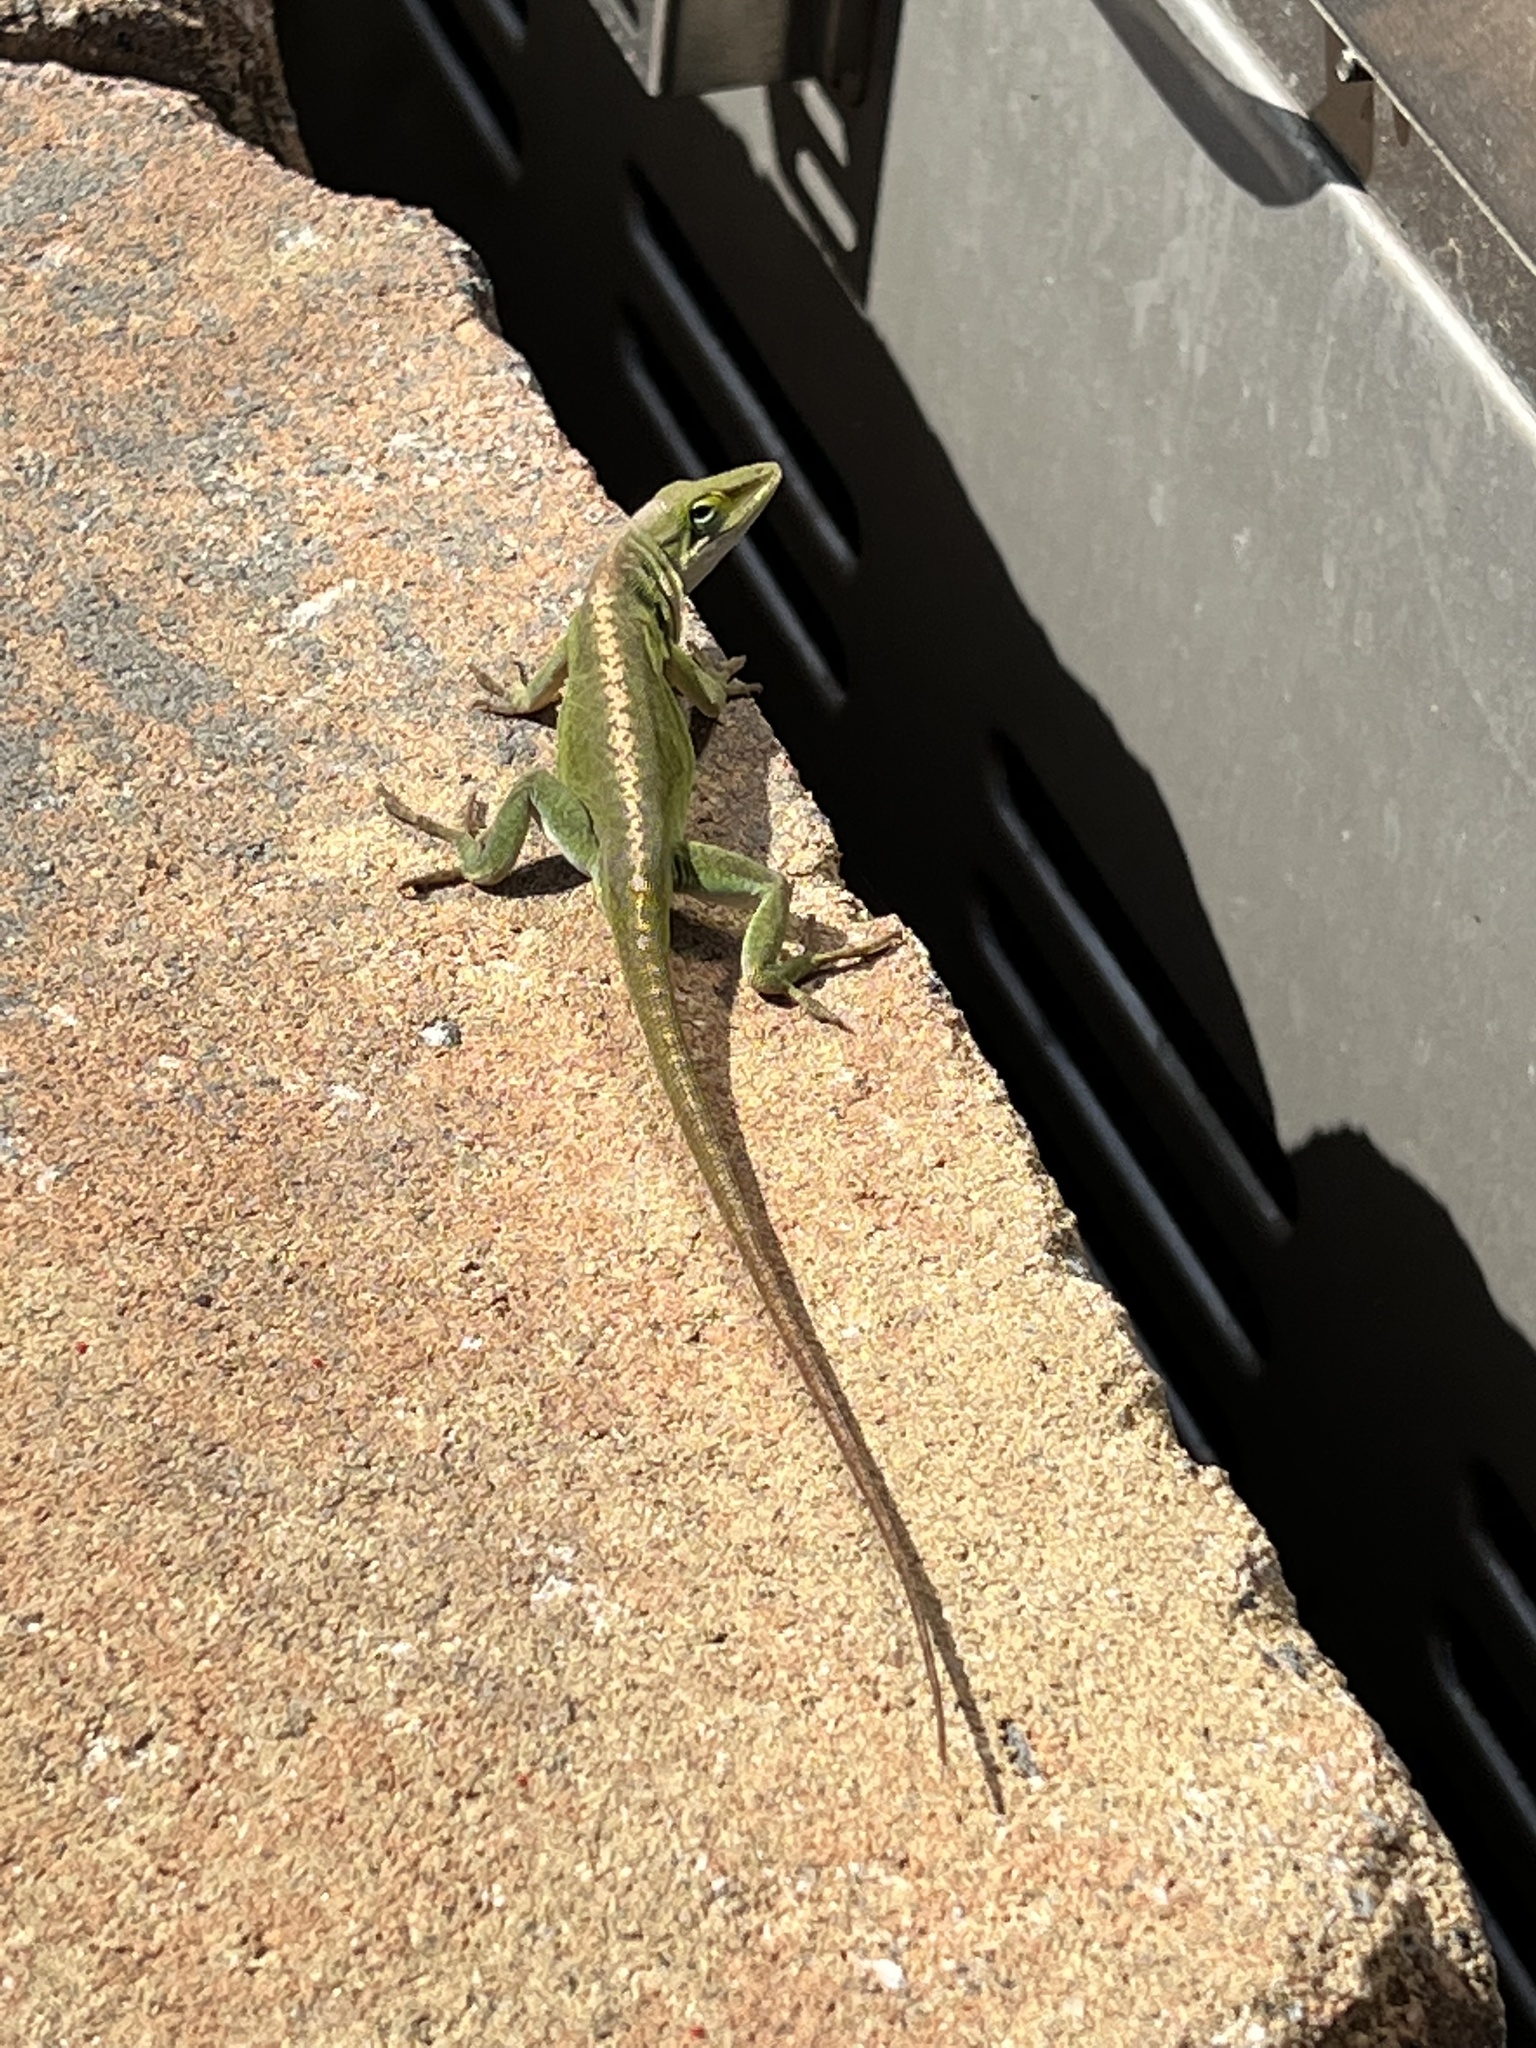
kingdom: Animalia
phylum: Chordata
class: Squamata
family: Dactyloidae
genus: Anolis
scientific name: Anolis carolinensis
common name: Green anole
